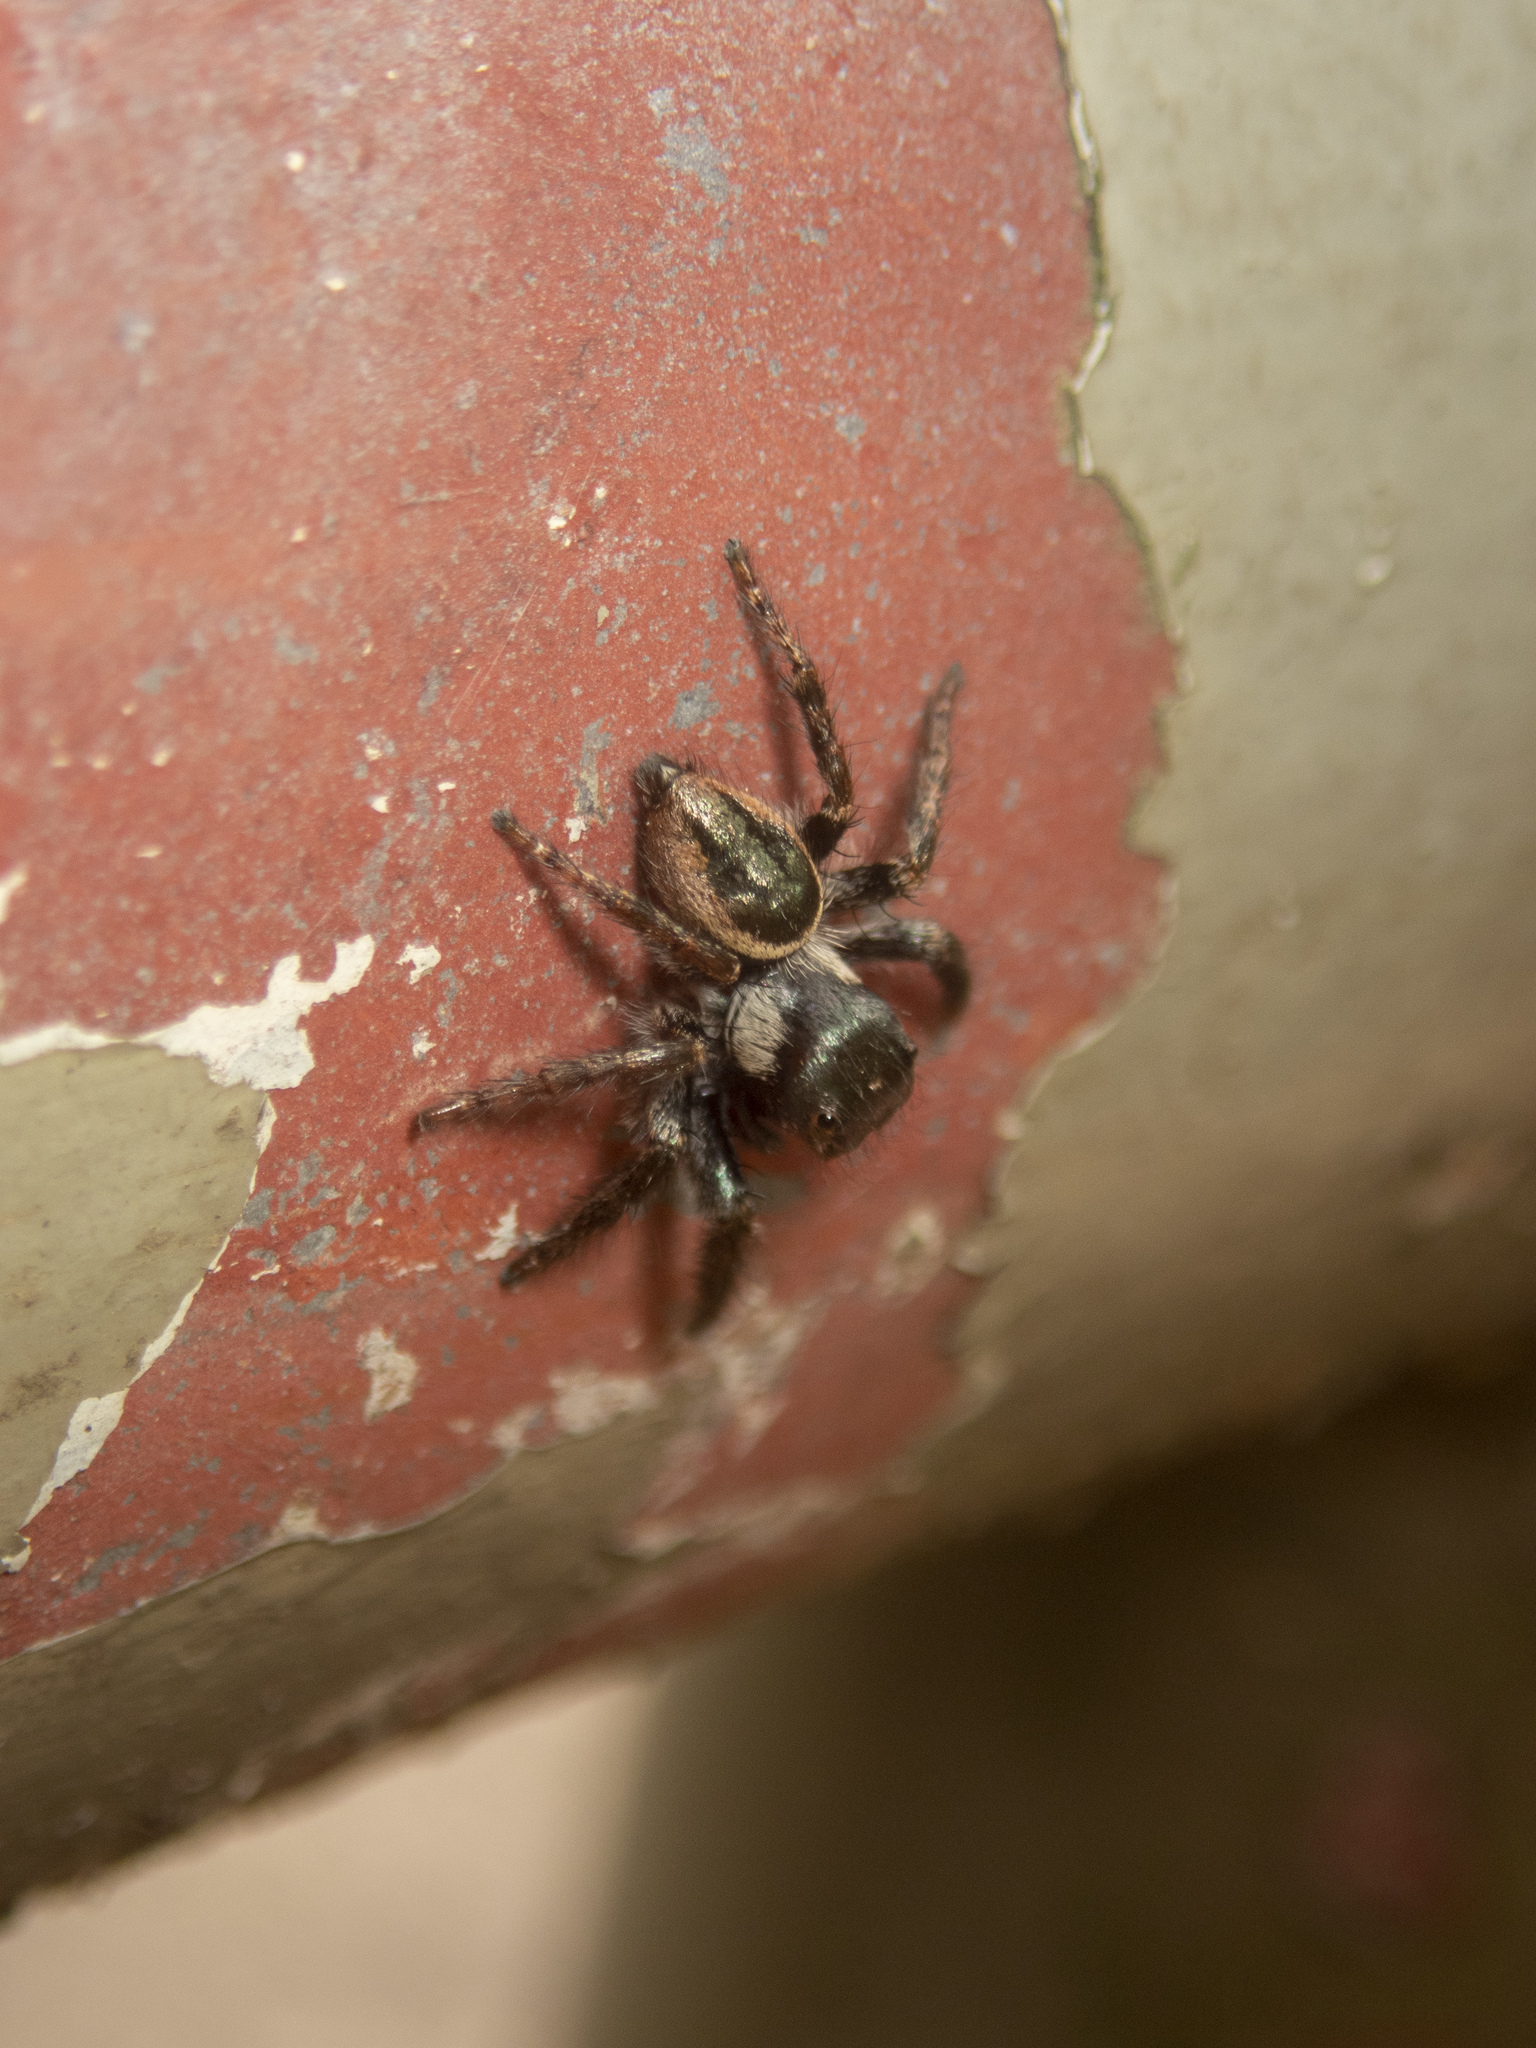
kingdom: Animalia
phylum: Arthropoda
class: Arachnida
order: Araneae
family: Salticidae
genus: Carrhotus
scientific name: Carrhotus viduus
